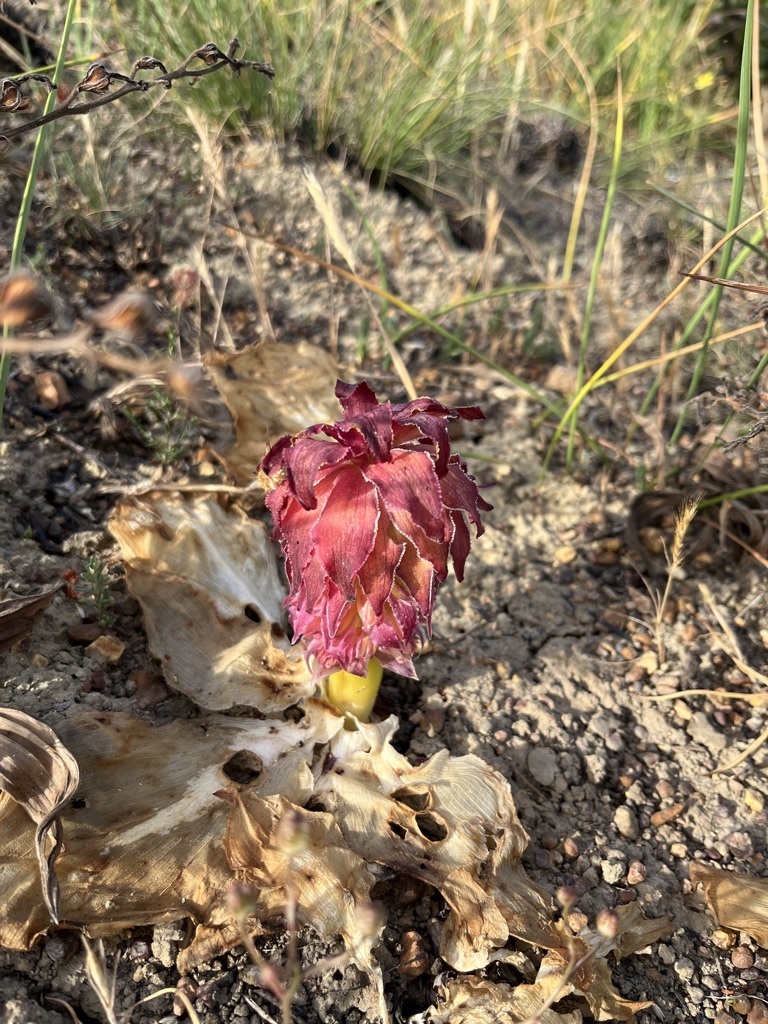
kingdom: Plantae
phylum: Tracheophyta
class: Liliopsida
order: Asparagales
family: Asparagaceae
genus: Eucomis
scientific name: Eucomis regia
